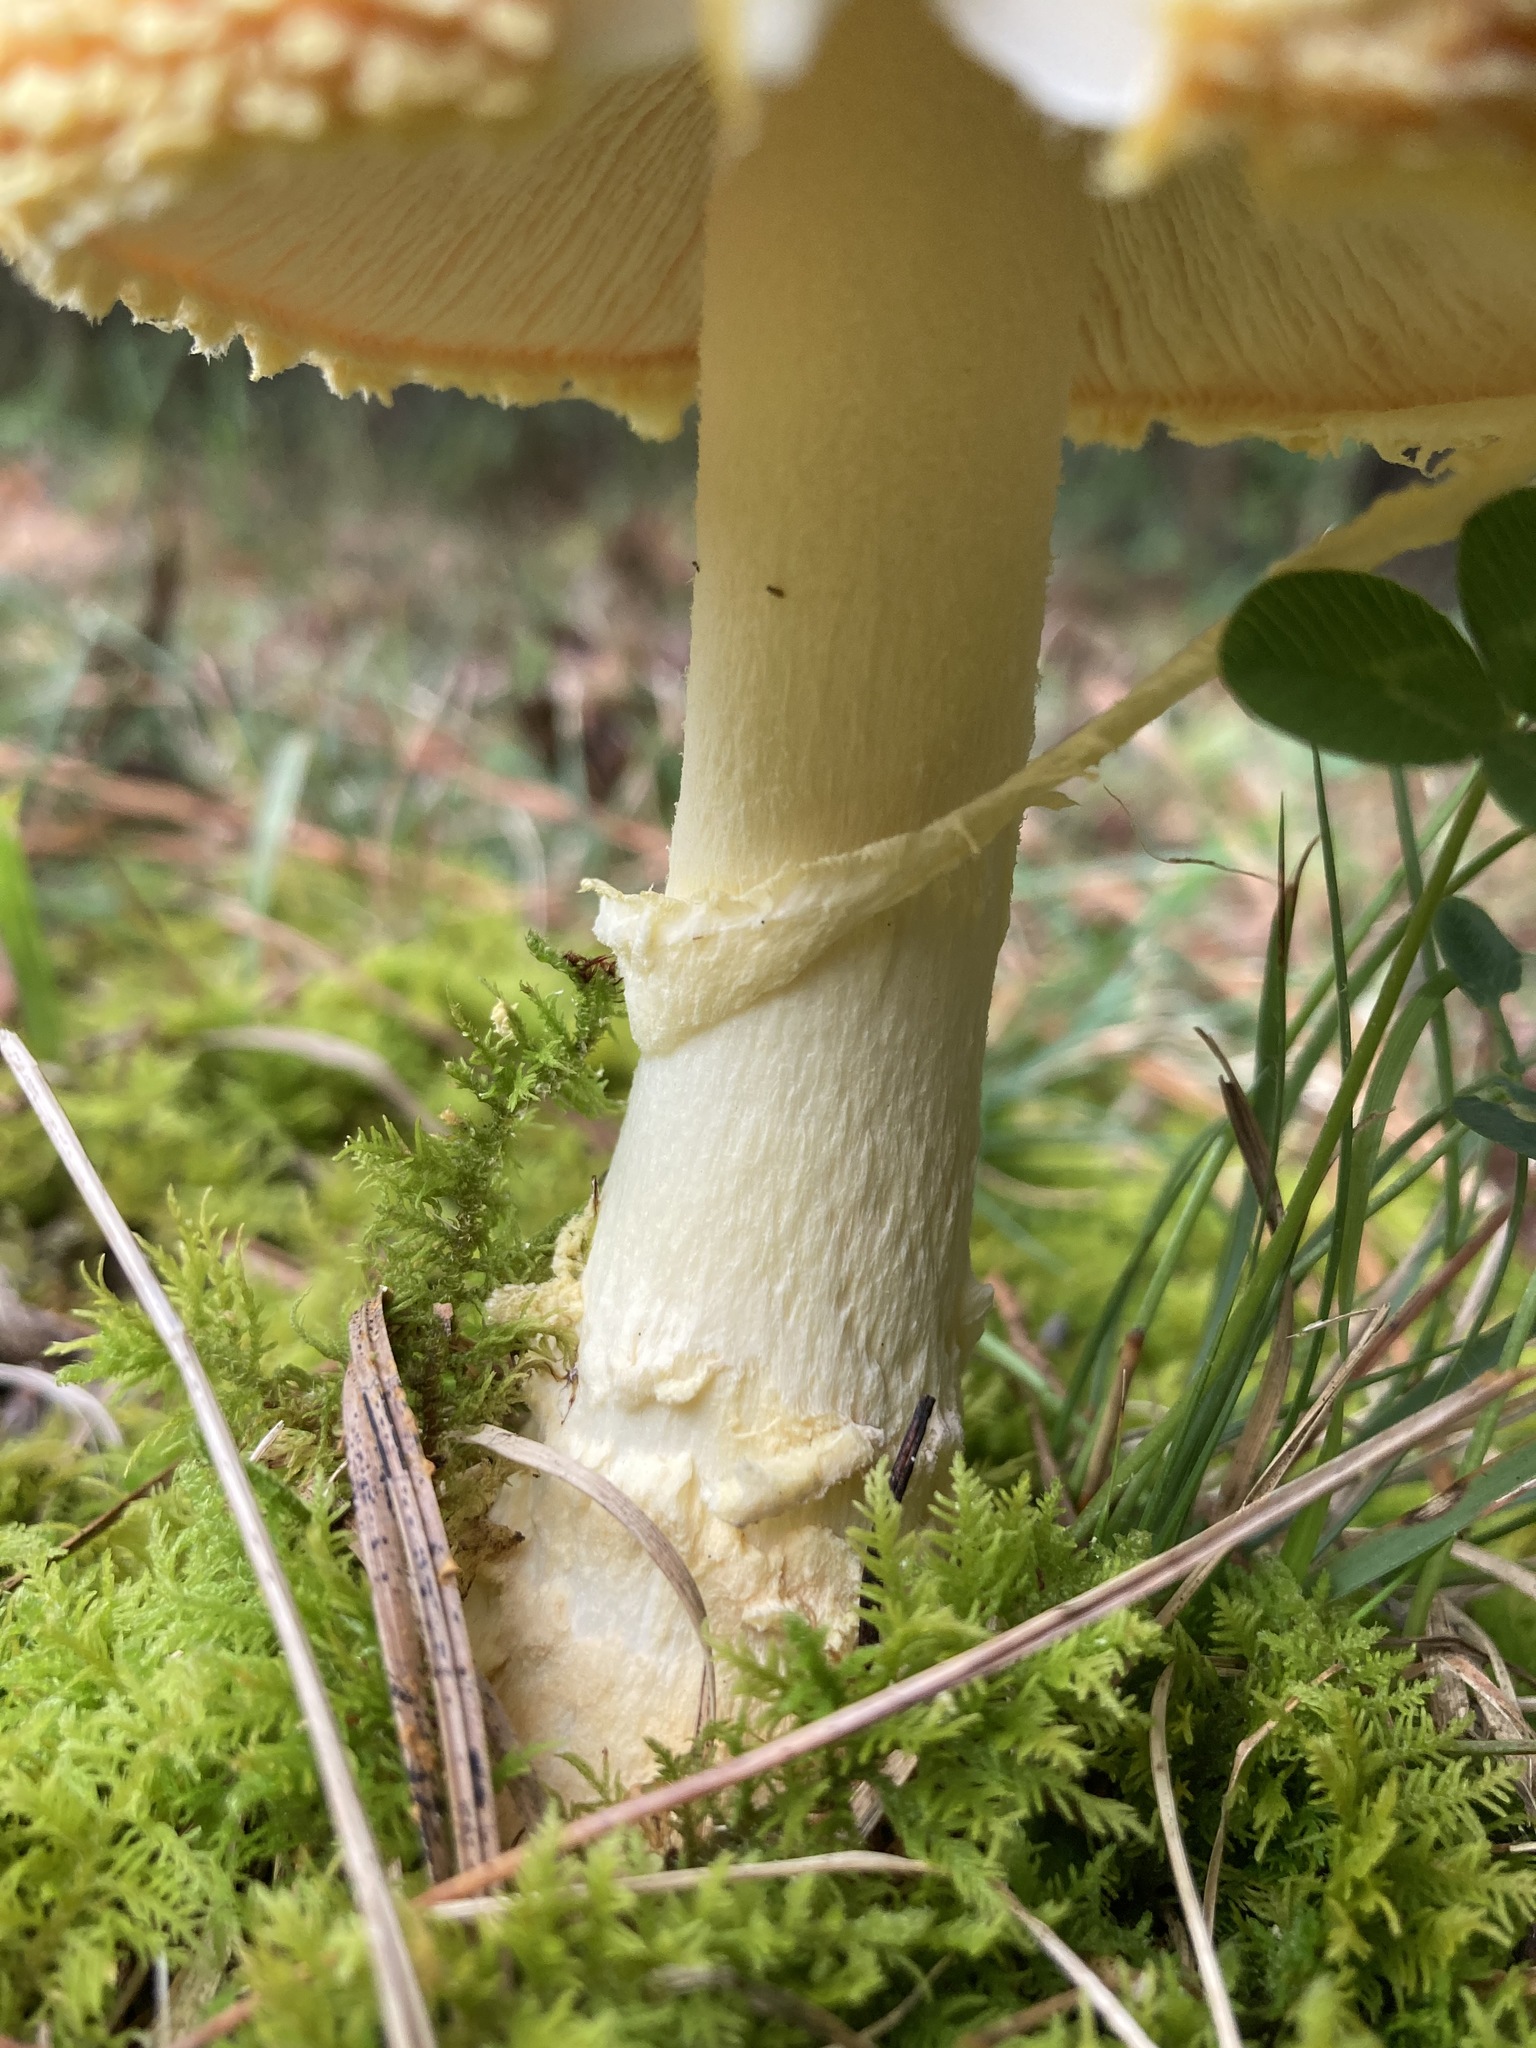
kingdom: Fungi
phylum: Basidiomycota
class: Agaricomycetes
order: Agaricales
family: Amanitaceae
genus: Amanita
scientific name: Amanita persicina
